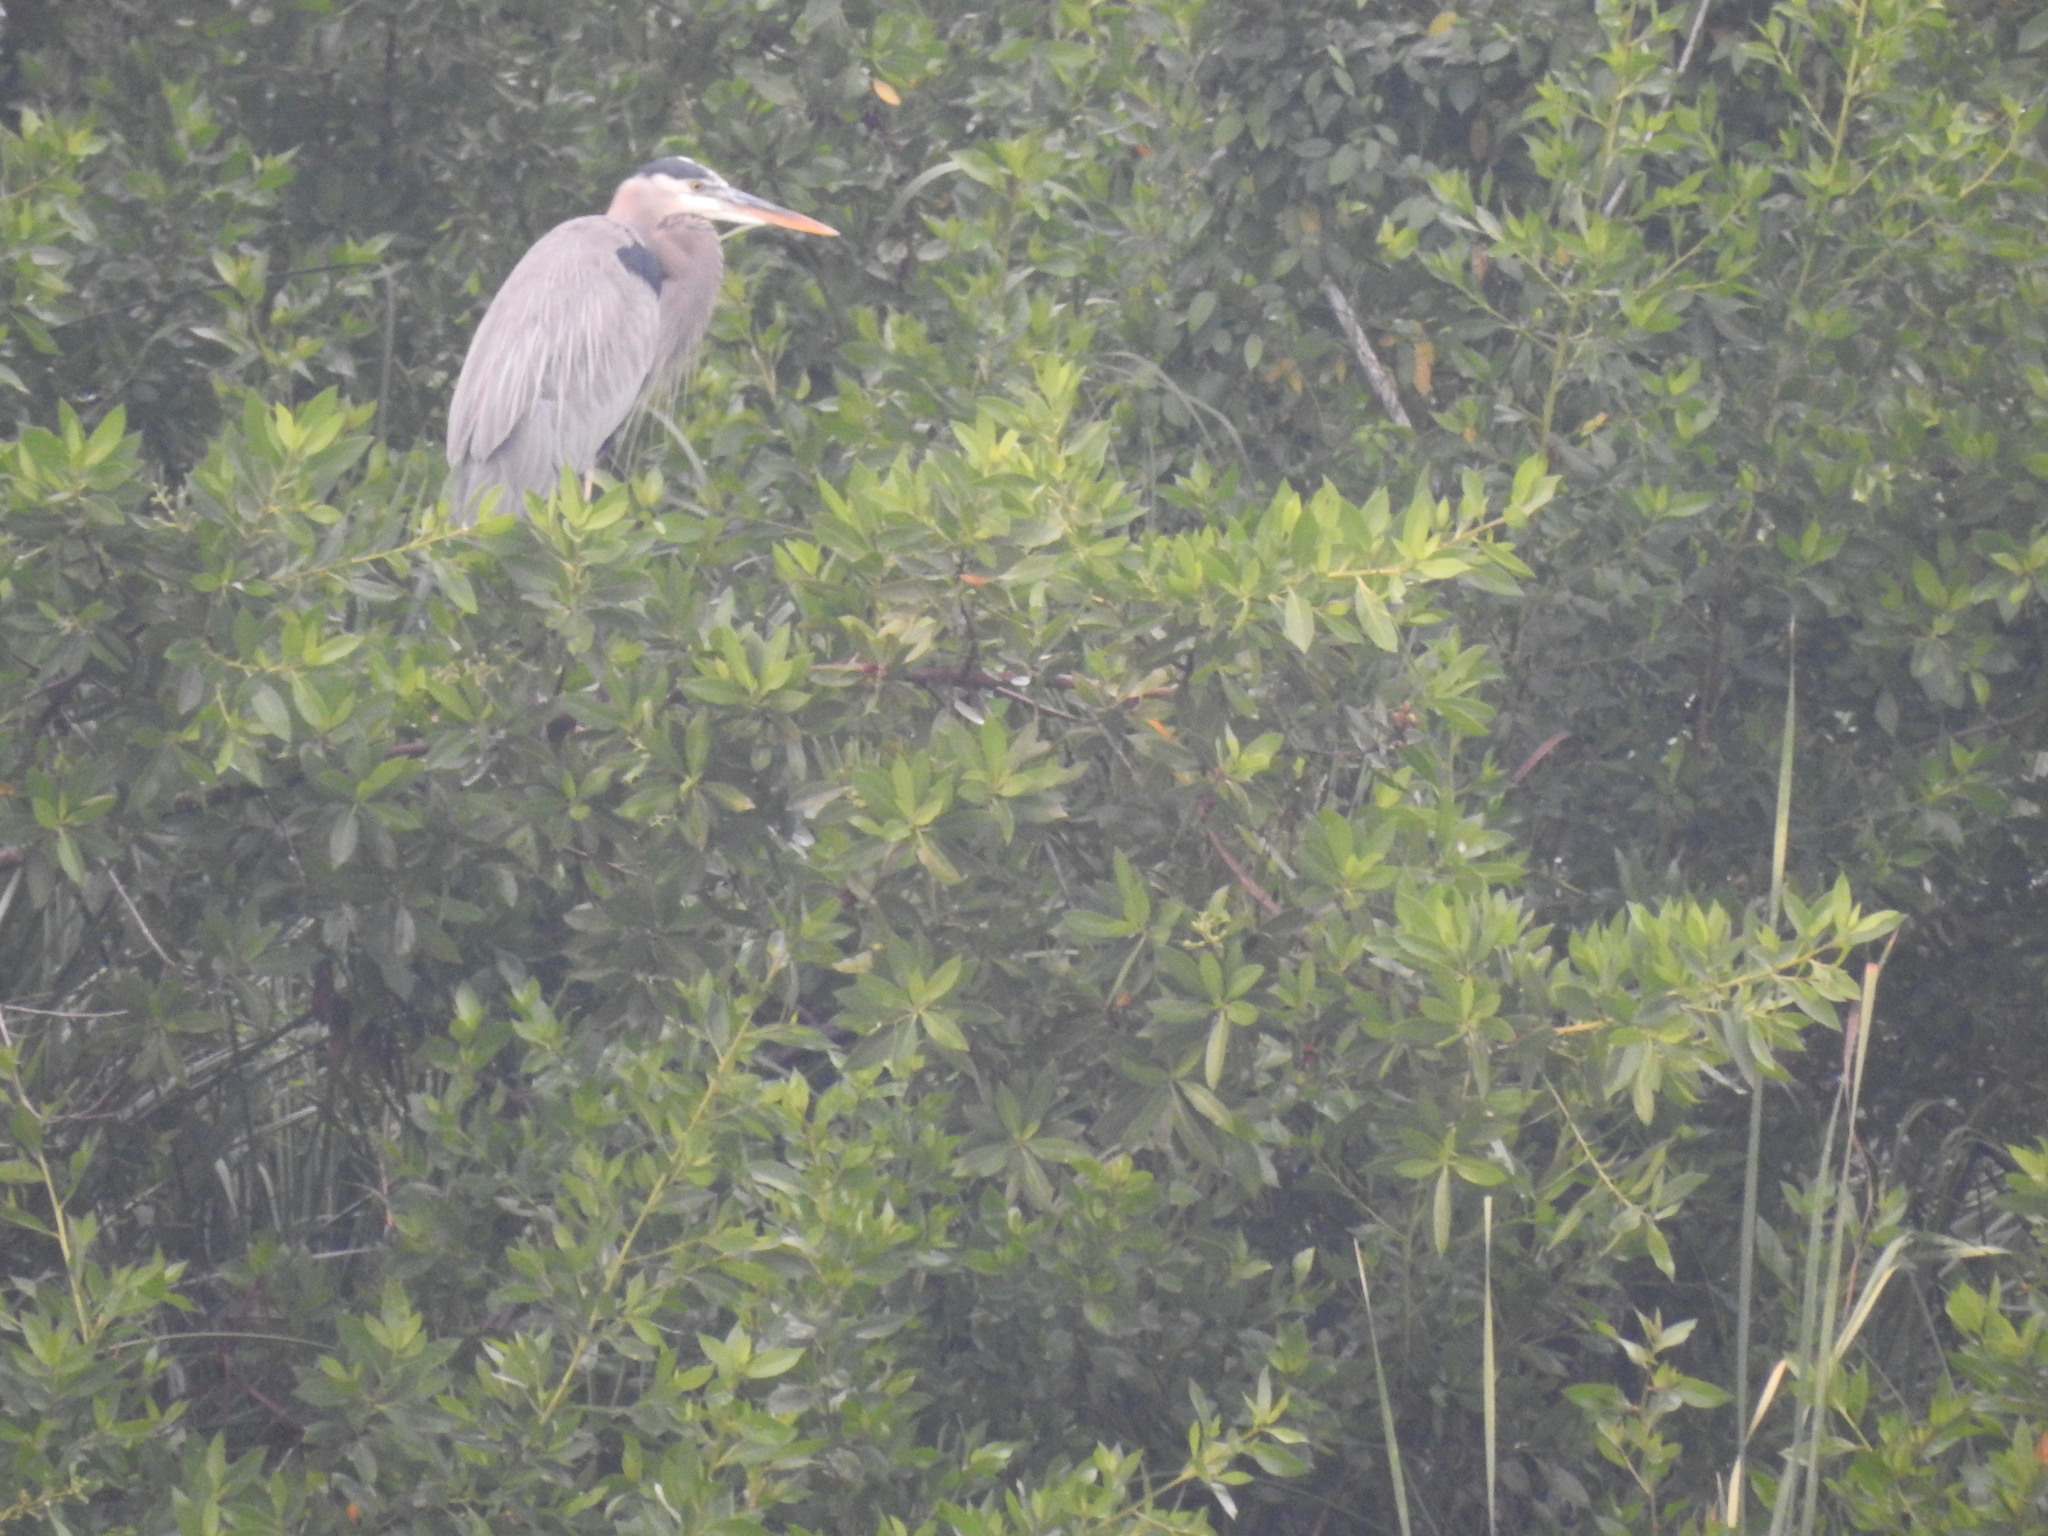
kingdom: Animalia
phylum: Chordata
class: Aves
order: Pelecaniformes
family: Ardeidae
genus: Ardea
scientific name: Ardea herodias
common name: Great blue heron
